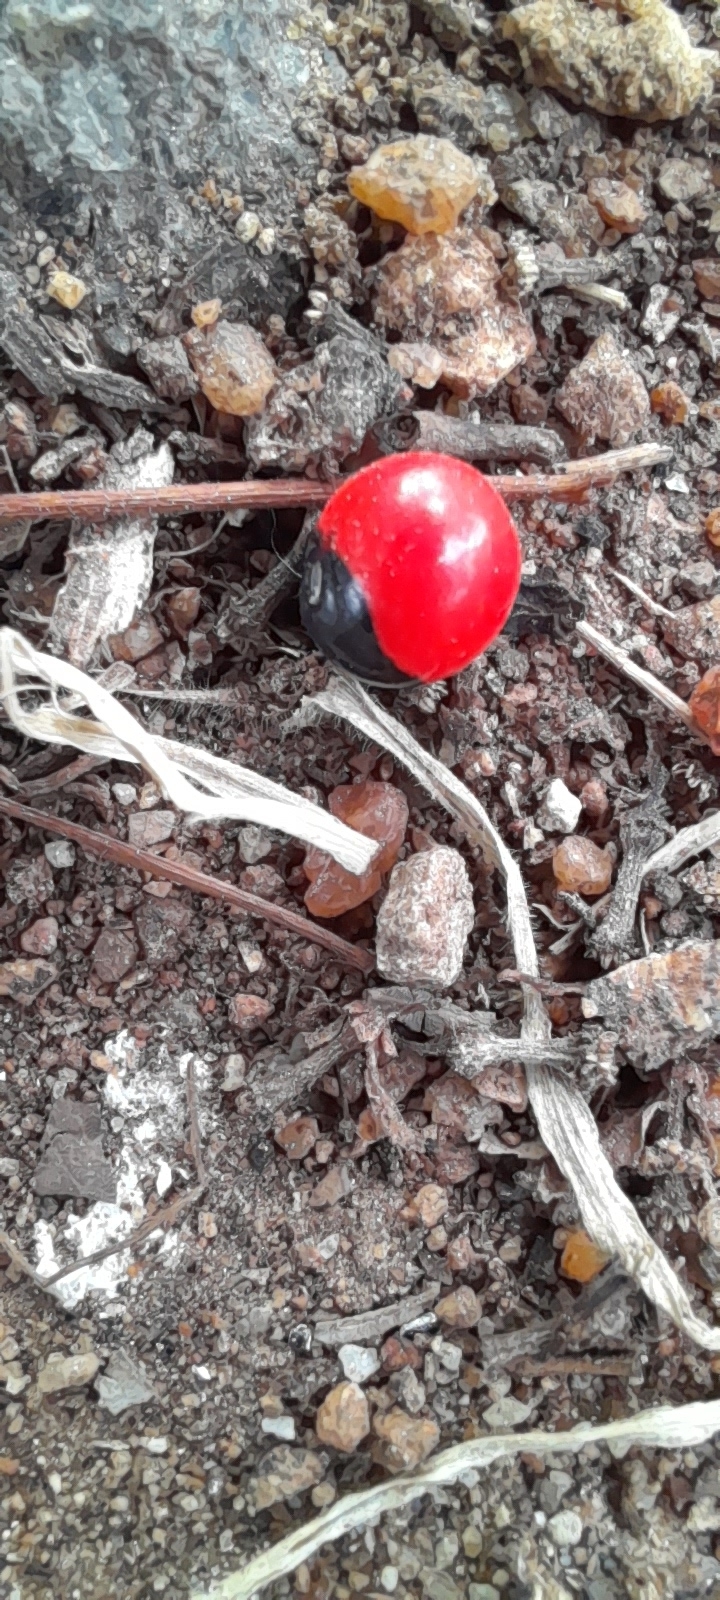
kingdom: Plantae
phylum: Tracheophyta
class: Magnoliopsida
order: Fabales
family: Fabaceae
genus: Abrus
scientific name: Abrus precatorius
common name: Rosarypea
